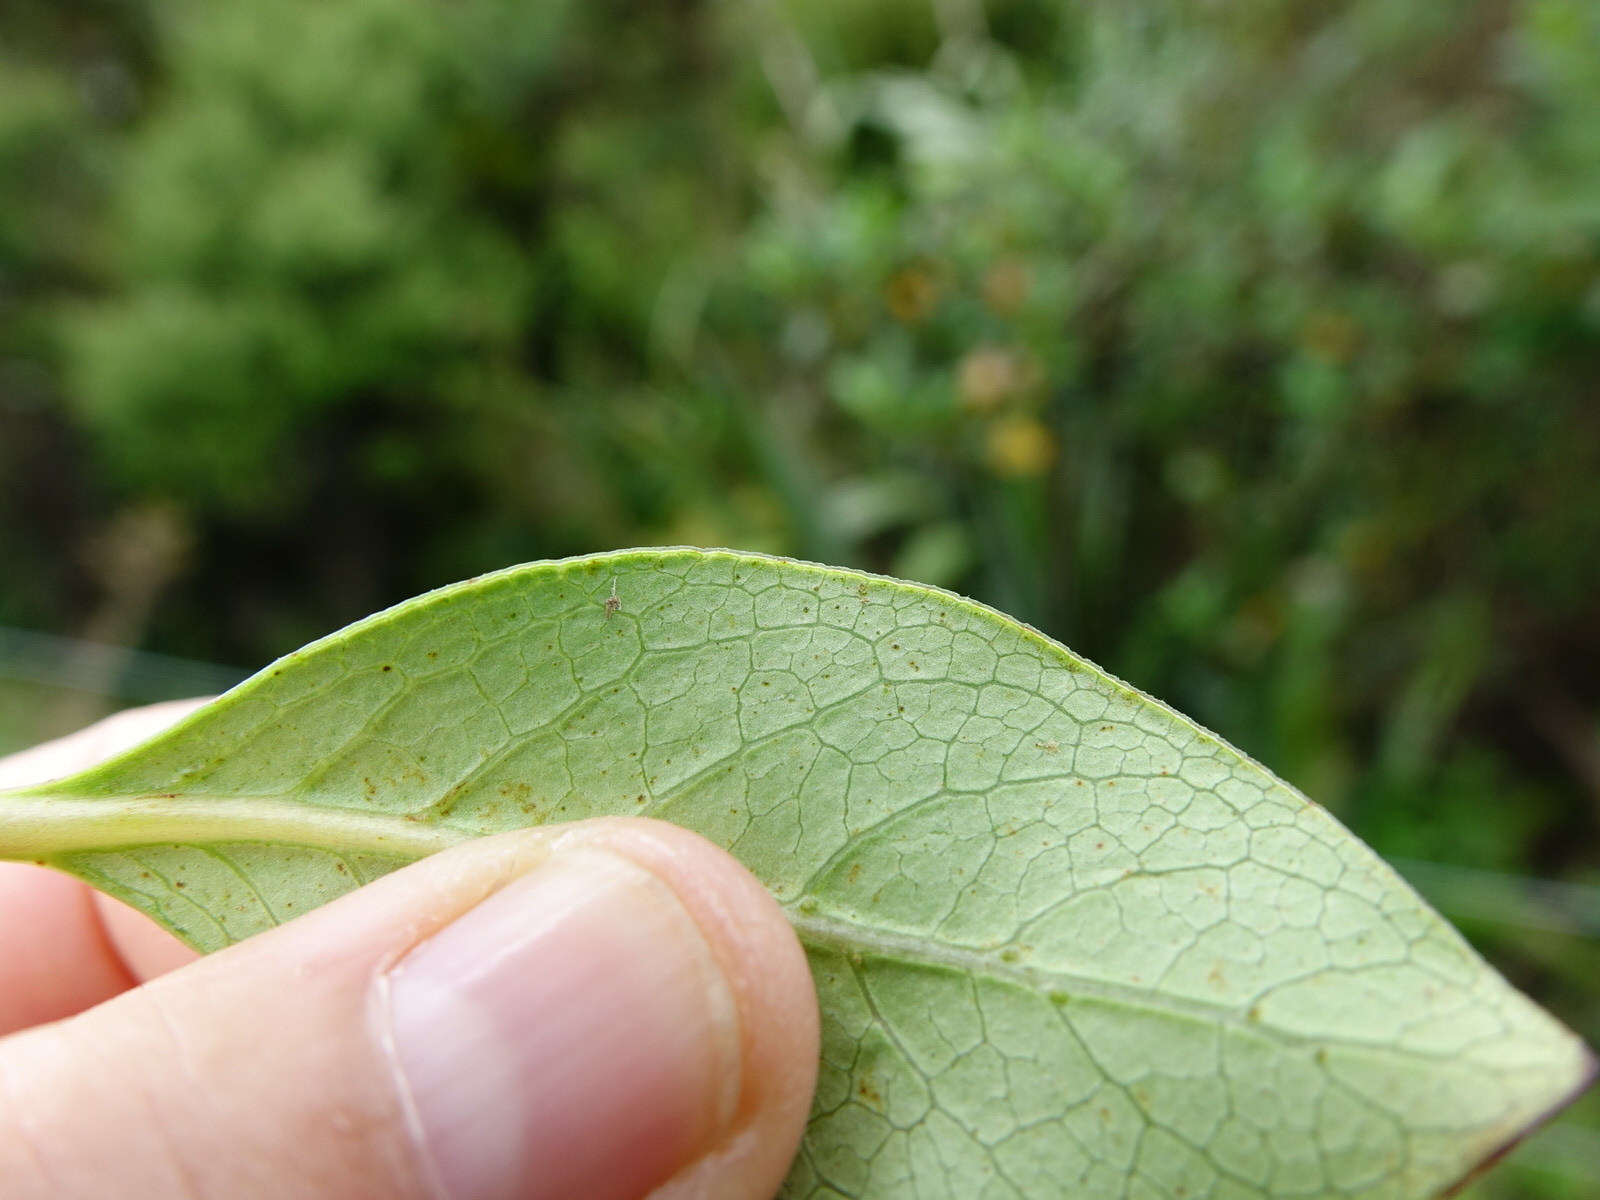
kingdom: Plantae
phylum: Tracheophyta
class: Magnoliopsida
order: Gentianales
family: Rubiaceae
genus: Coprosma
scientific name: Coprosma robusta
